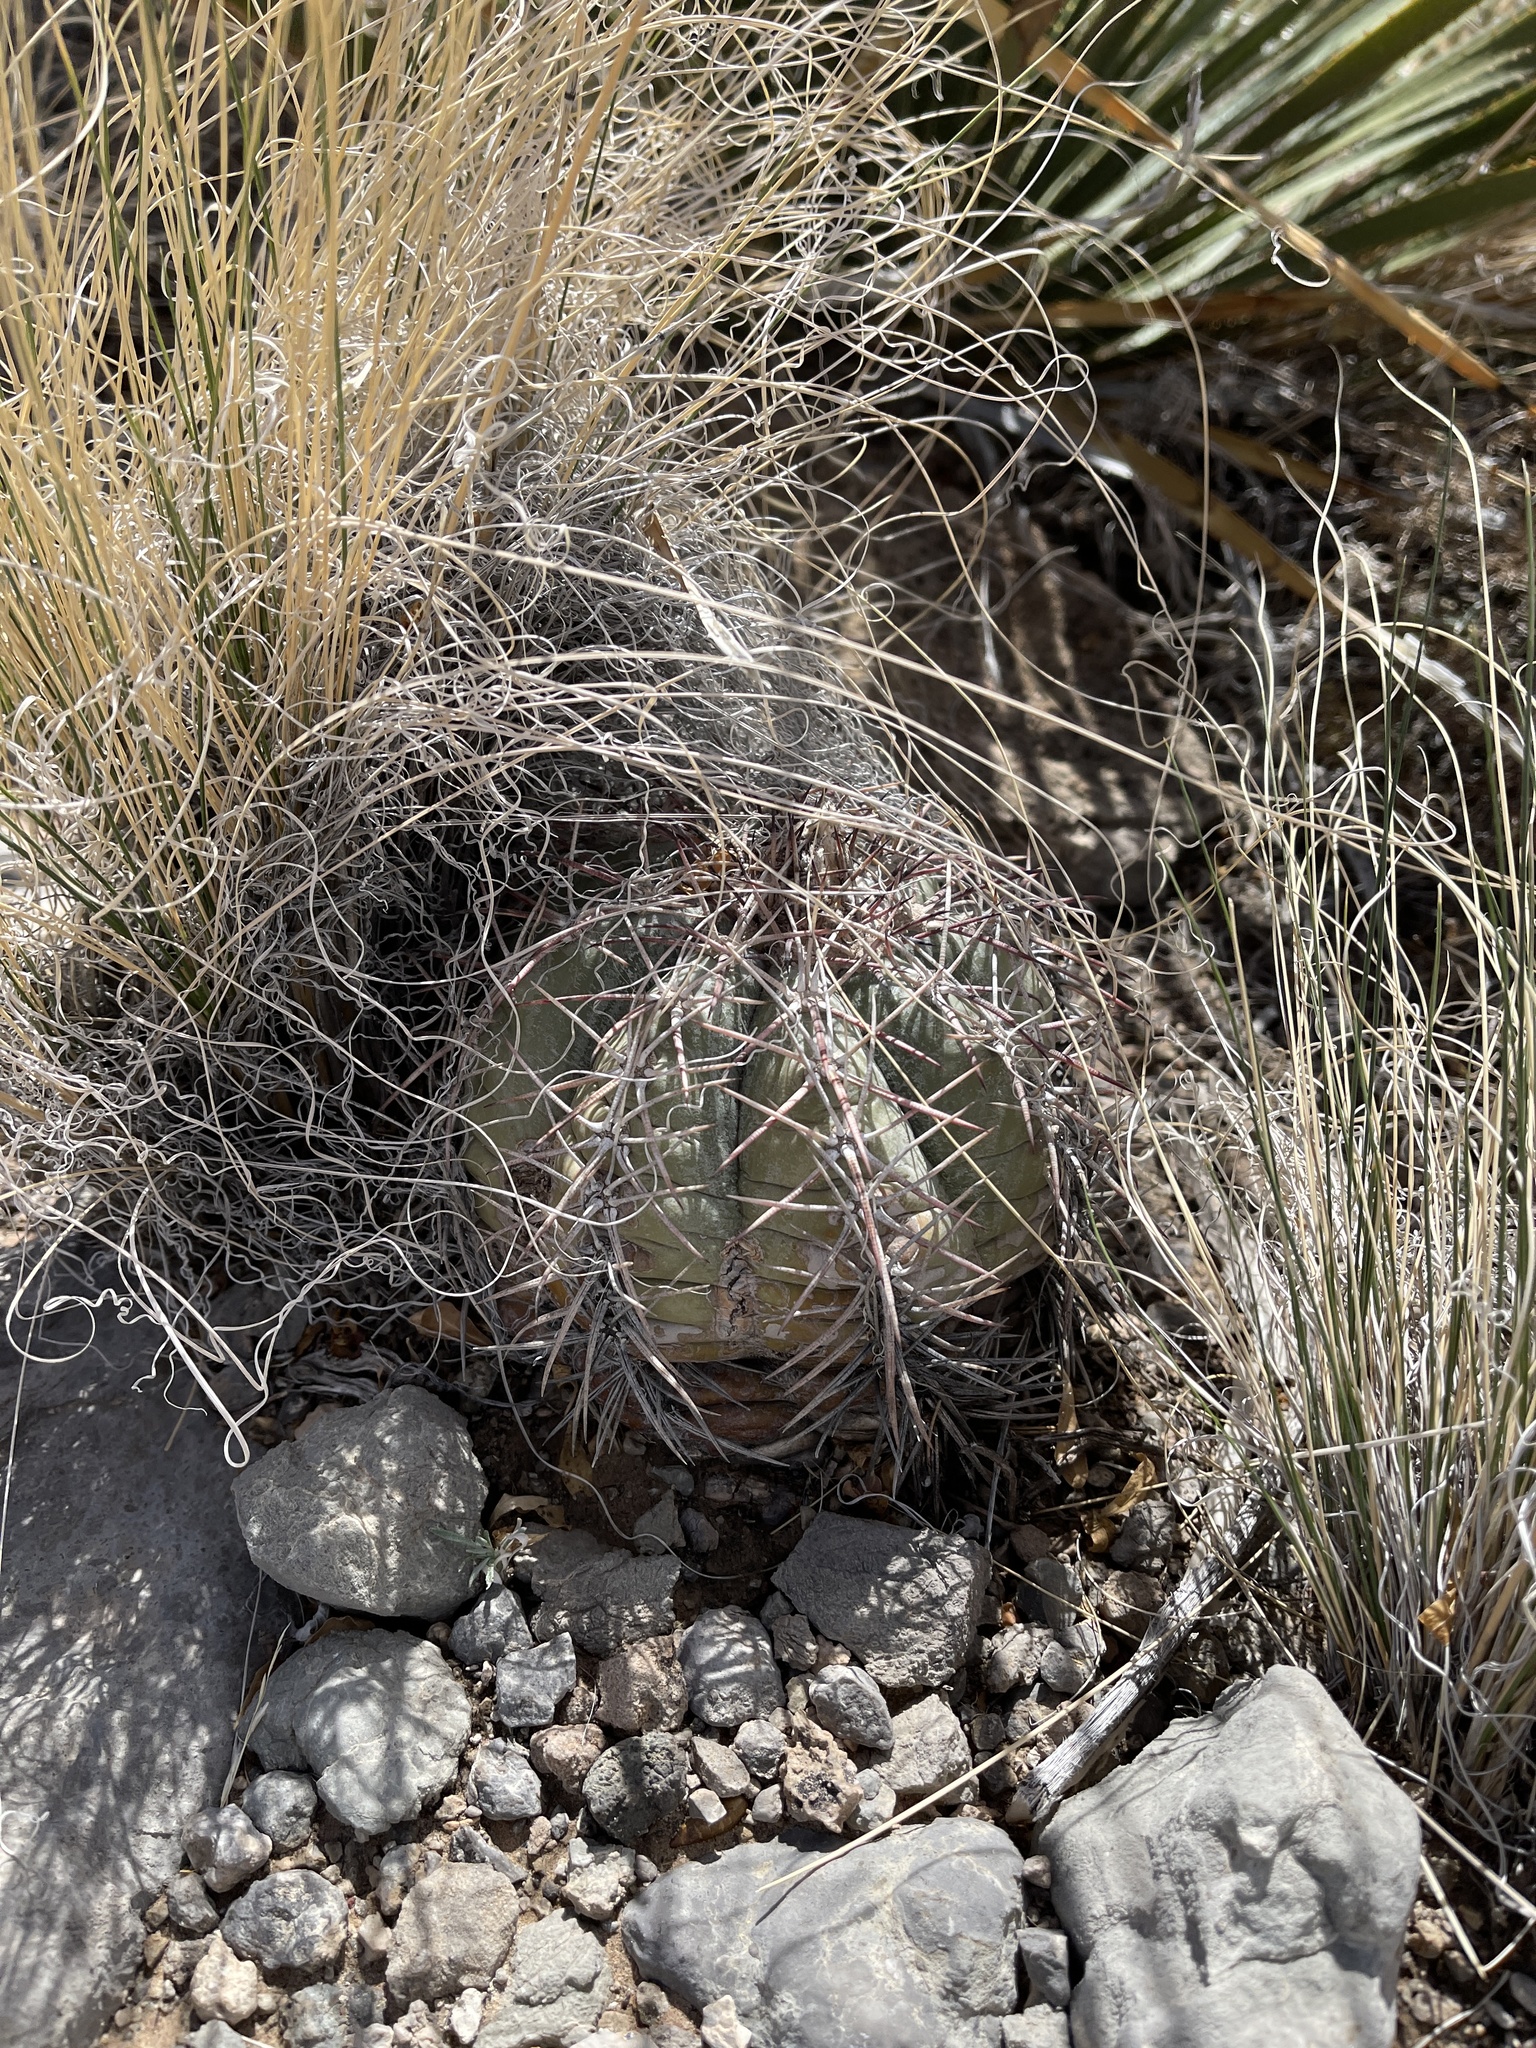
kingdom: Plantae
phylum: Tracheophyta
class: Magnoliopsida
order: Caryophyllales
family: Cactaceae
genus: Echinocactus
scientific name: Echinocactus horizonthalonius
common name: Devilshead
